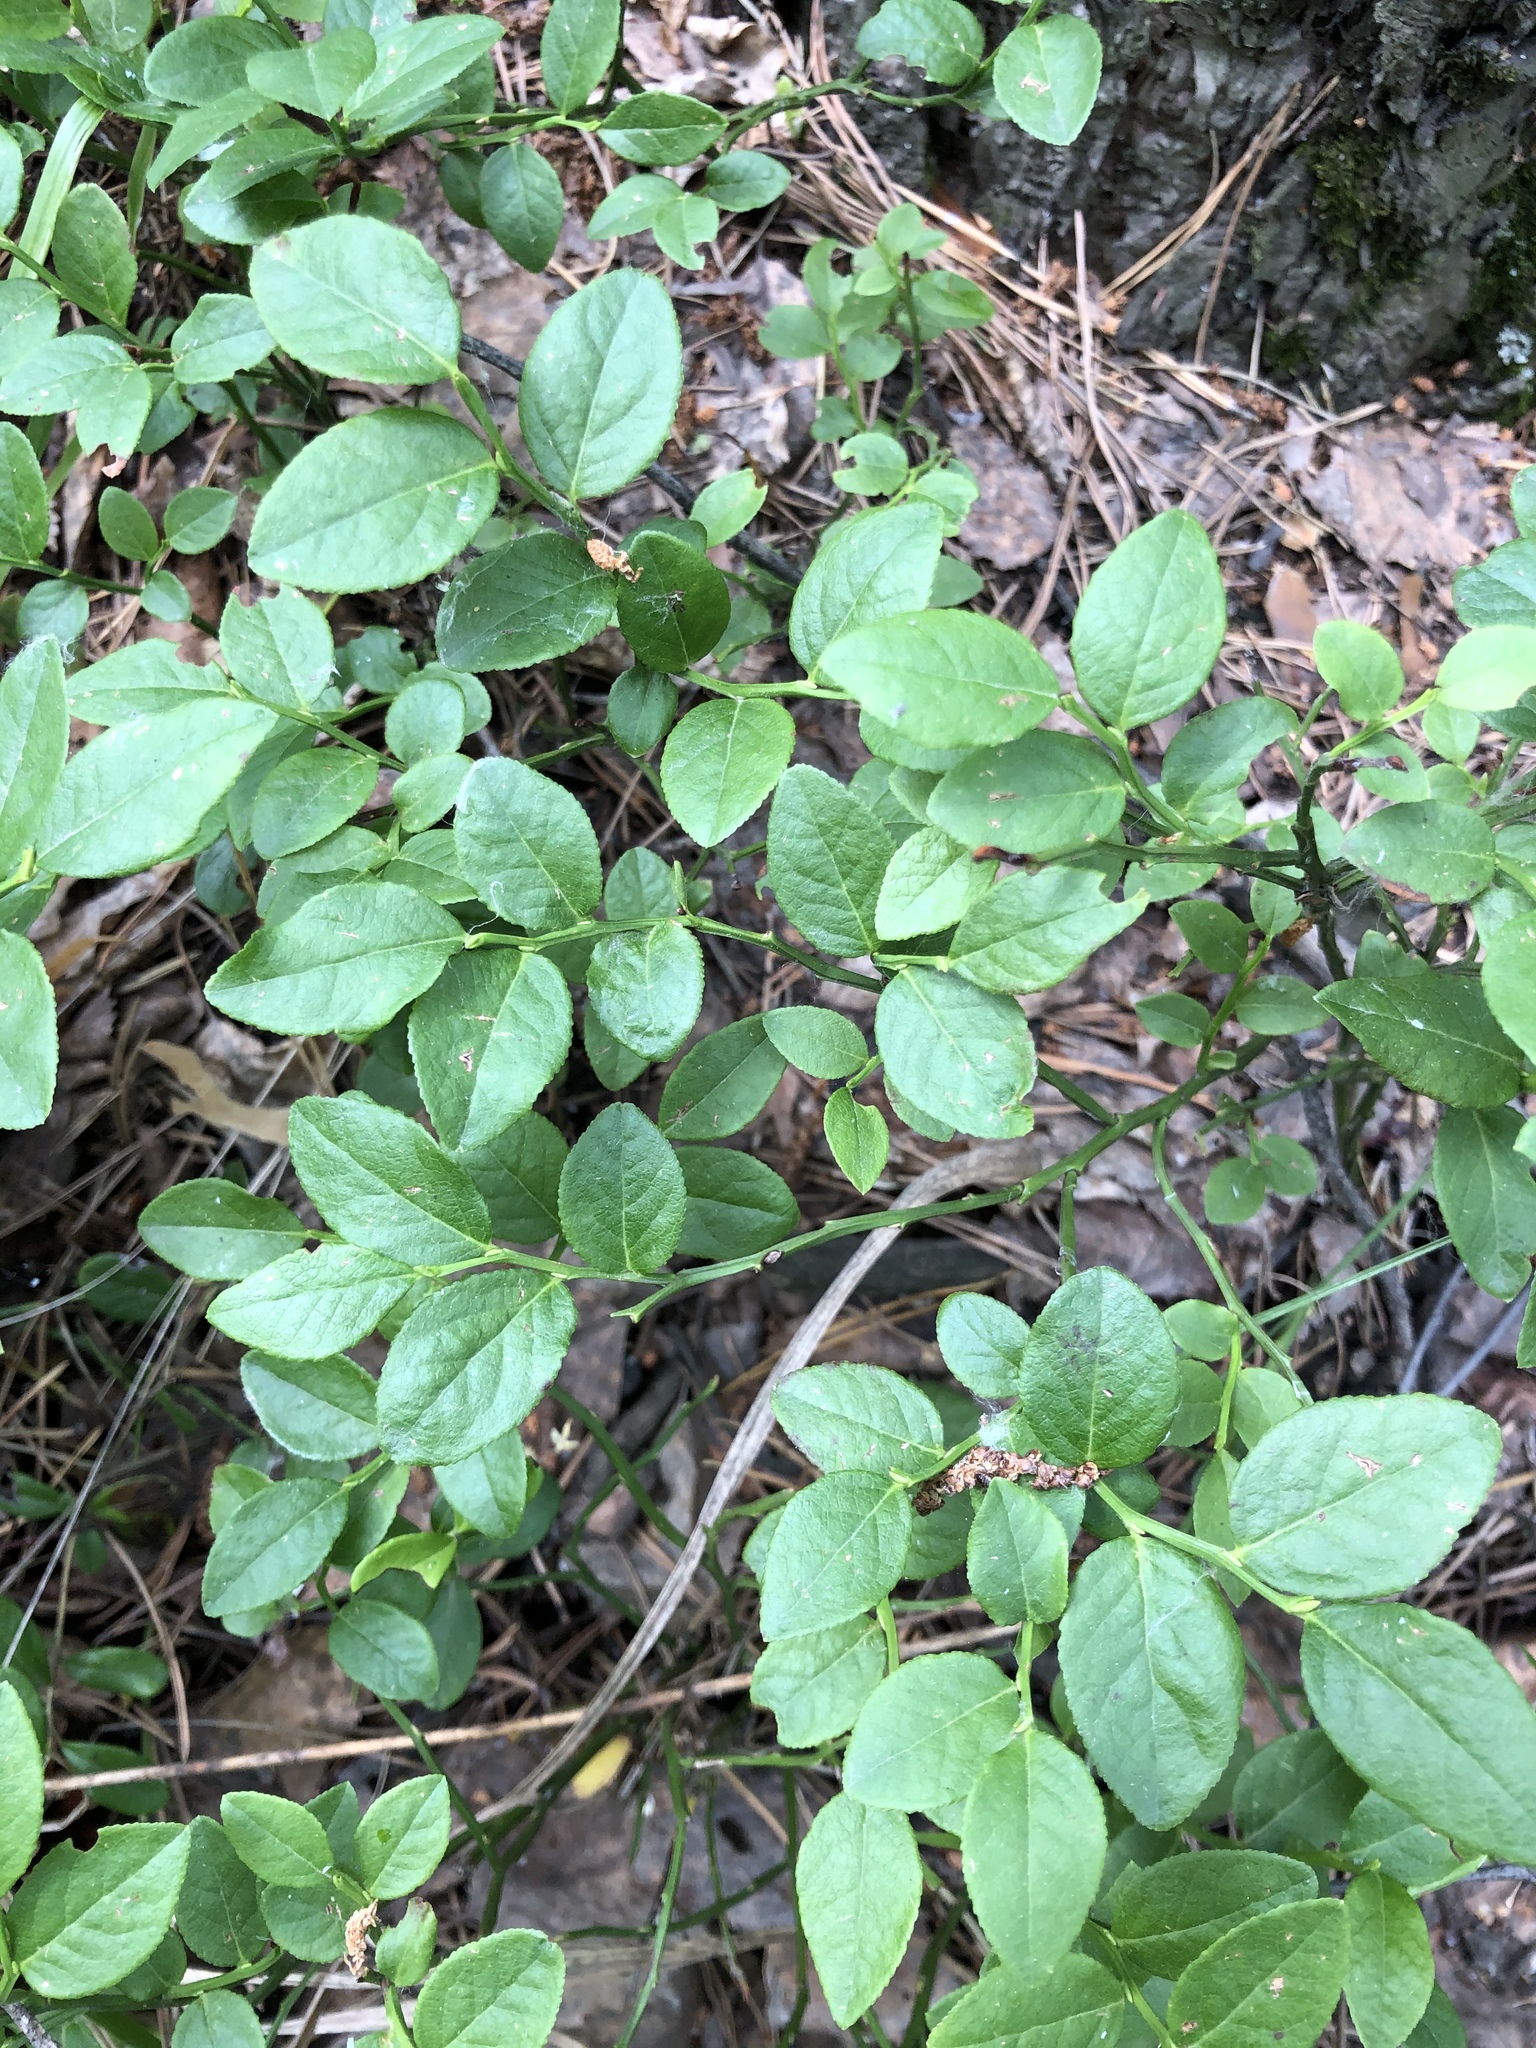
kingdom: Plantae
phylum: Tracheophyta
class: Magnoliopsida
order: Ericales
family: Ericaceae
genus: Vaccinium
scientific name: Vaccinium myrtillus
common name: Bilberry
